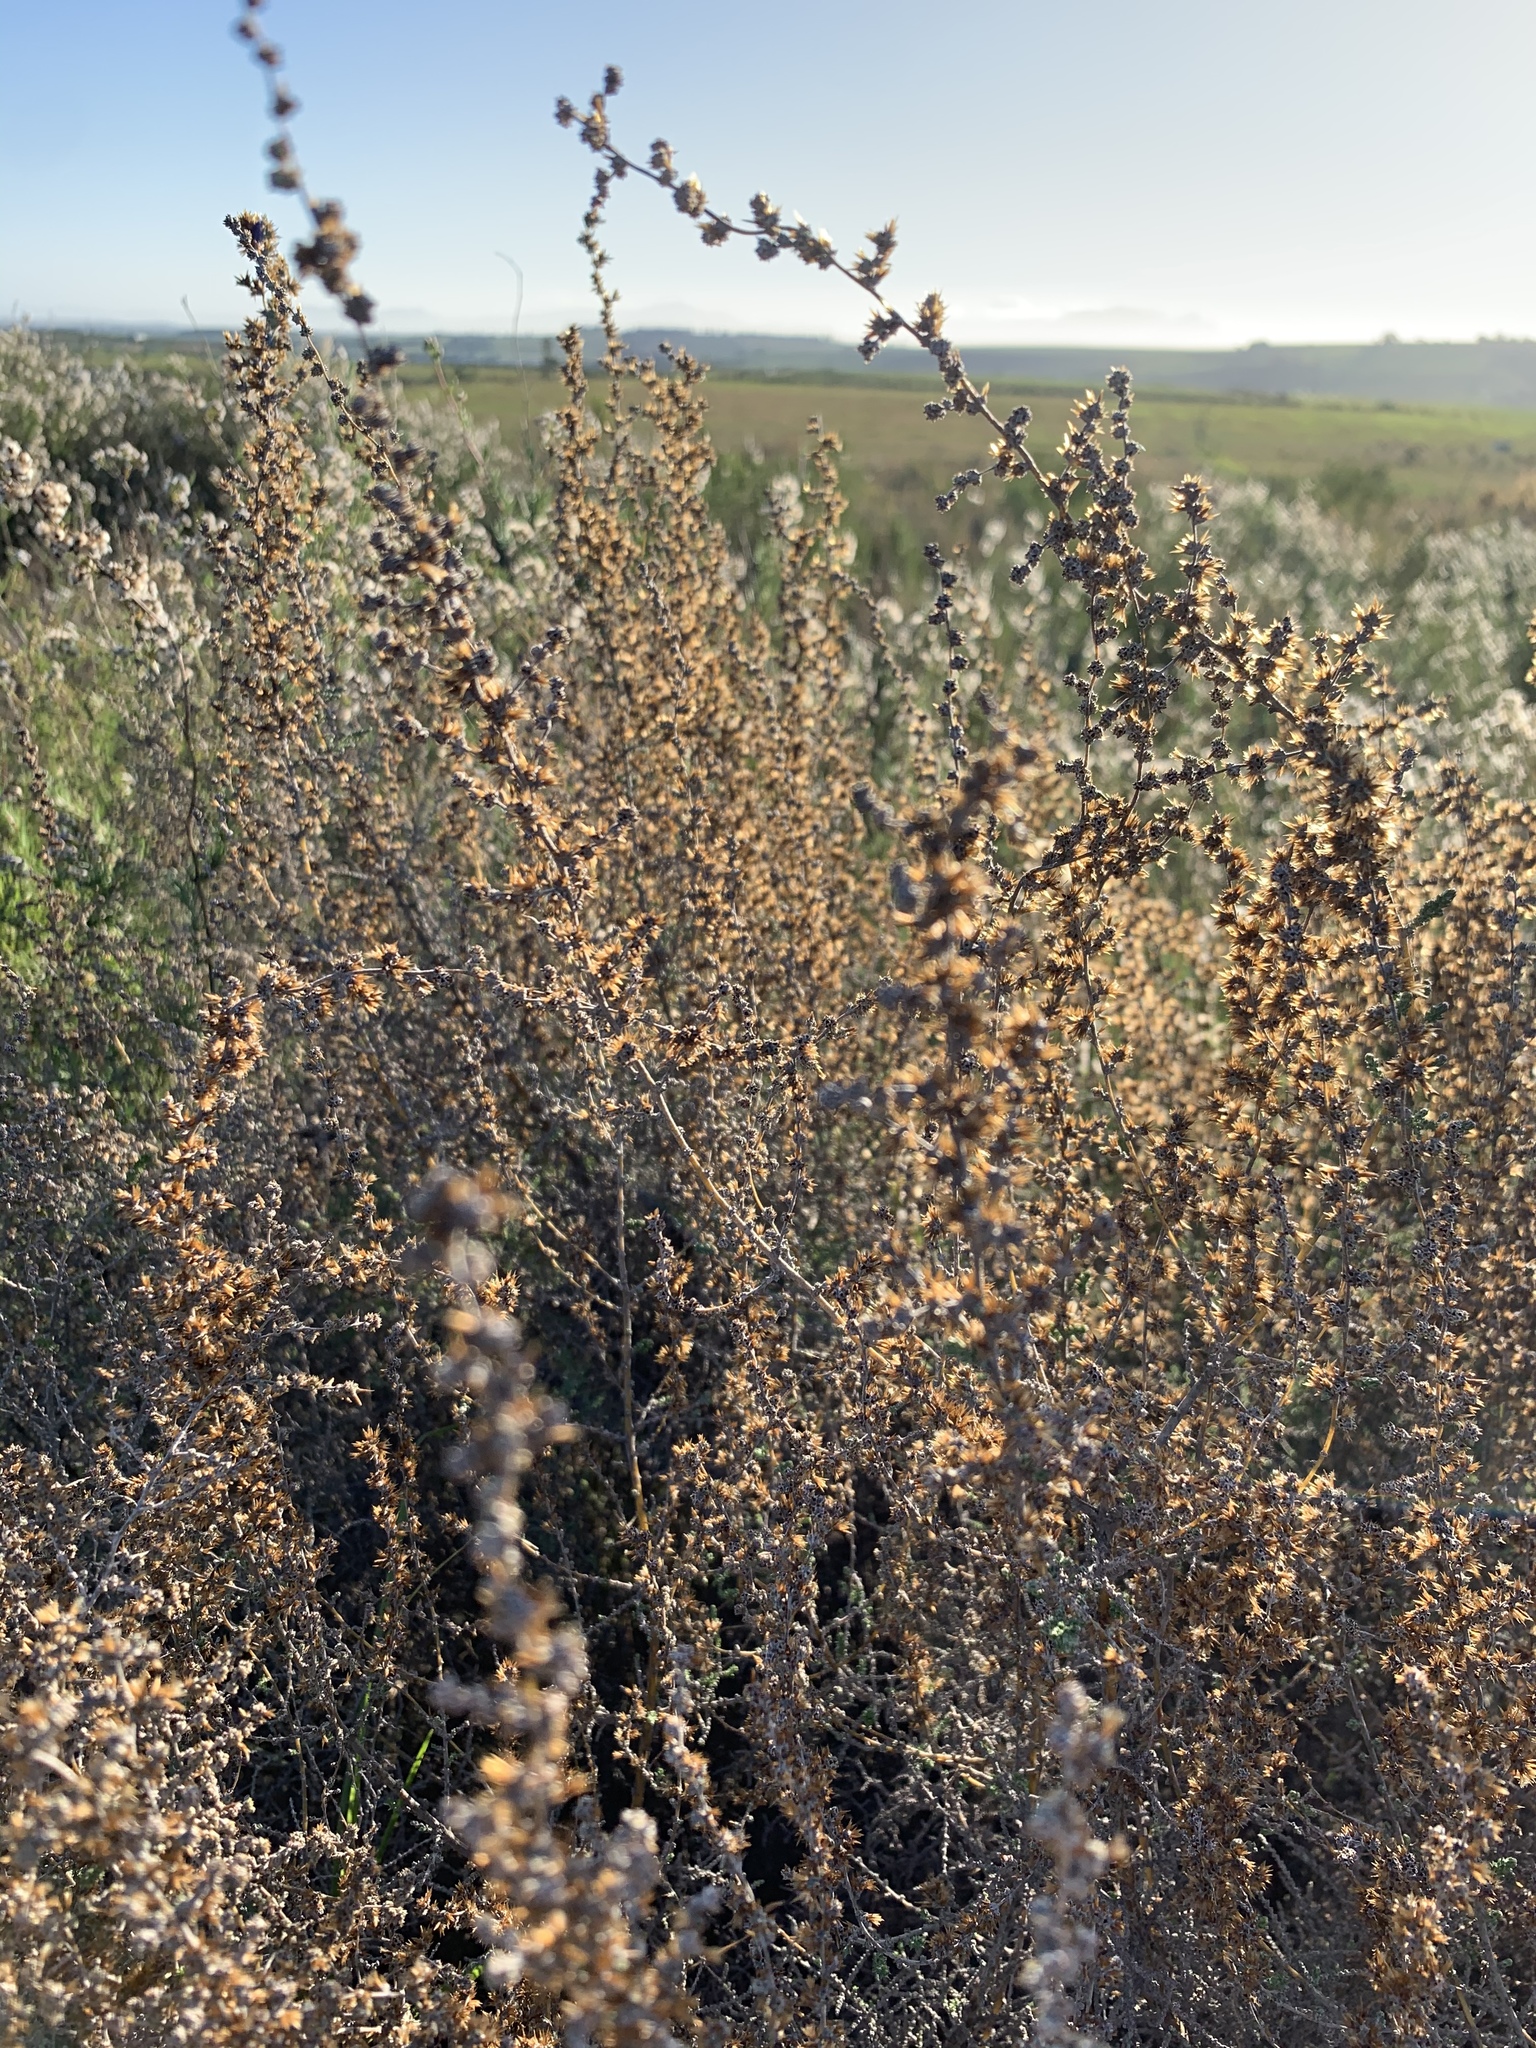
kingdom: Plantae
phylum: Tracheophyta
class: Magnoliopsida
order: Asterales
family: Asteraceae
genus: Seriphium
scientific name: Seriphium plumosum
